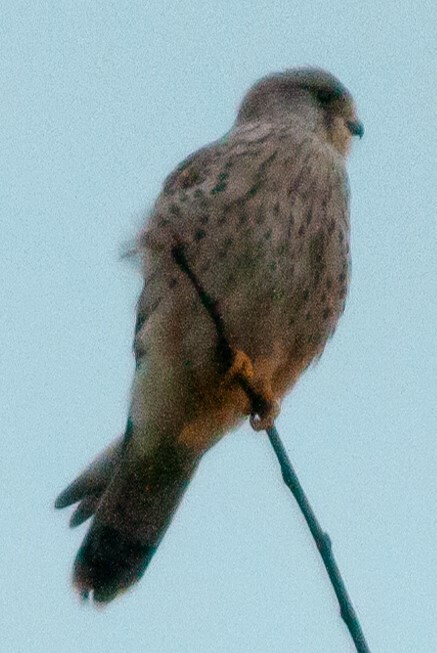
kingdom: Animalia
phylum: Chordata
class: Aves
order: Falconiformes
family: Falconidae
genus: Falco
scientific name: Falco tinnunculus
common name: Common kestrel
